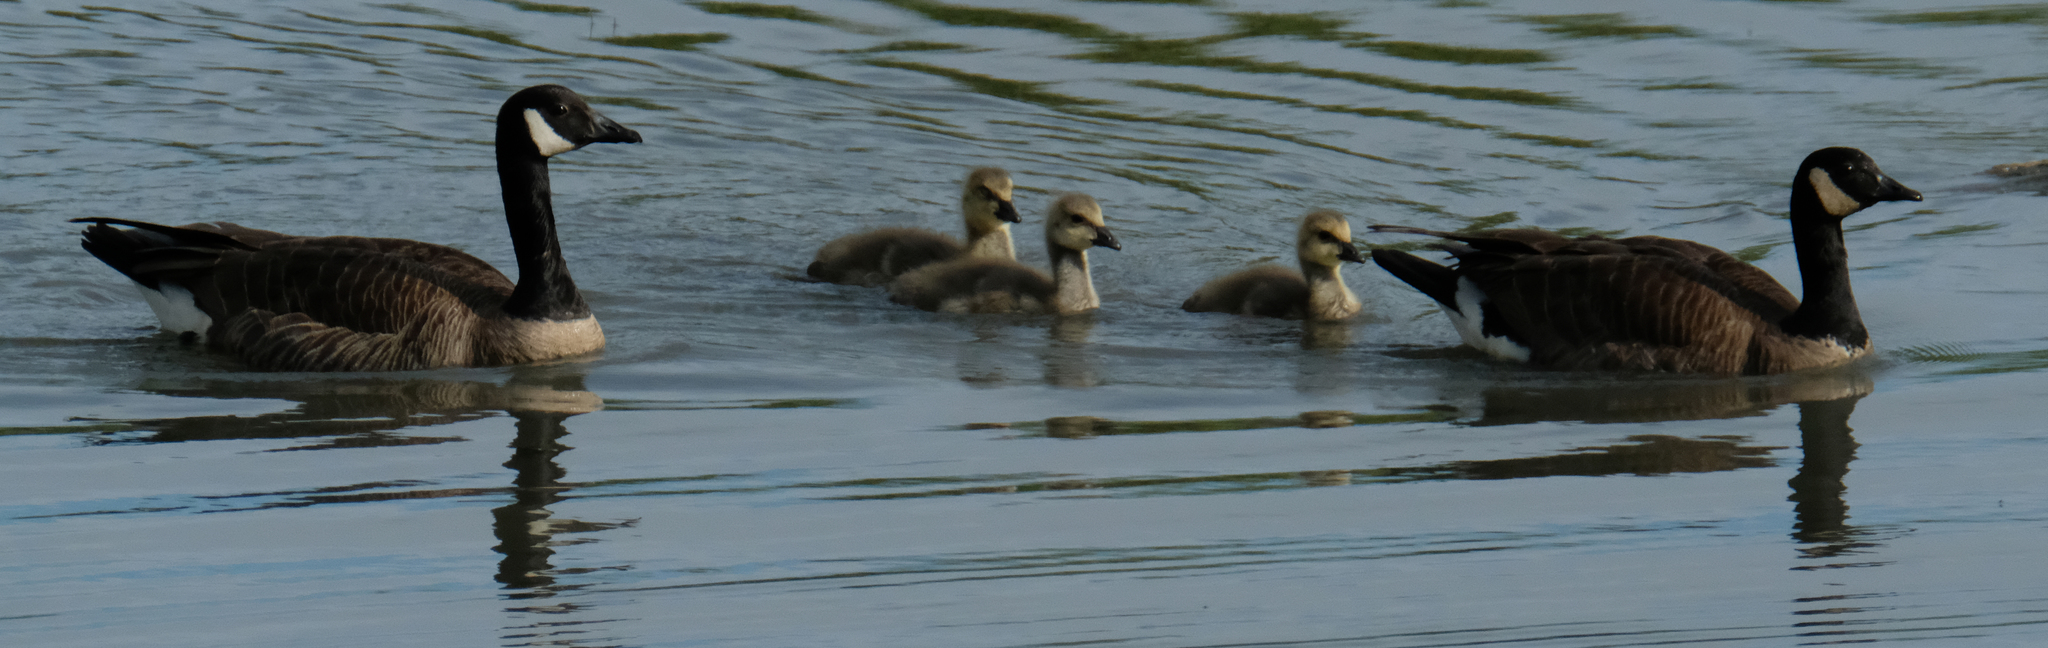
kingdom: Animalia
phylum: Chordata
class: Aves
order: Anseriformes
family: Anatidae
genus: Branta
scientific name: Branta canadensis
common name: Canada goose
